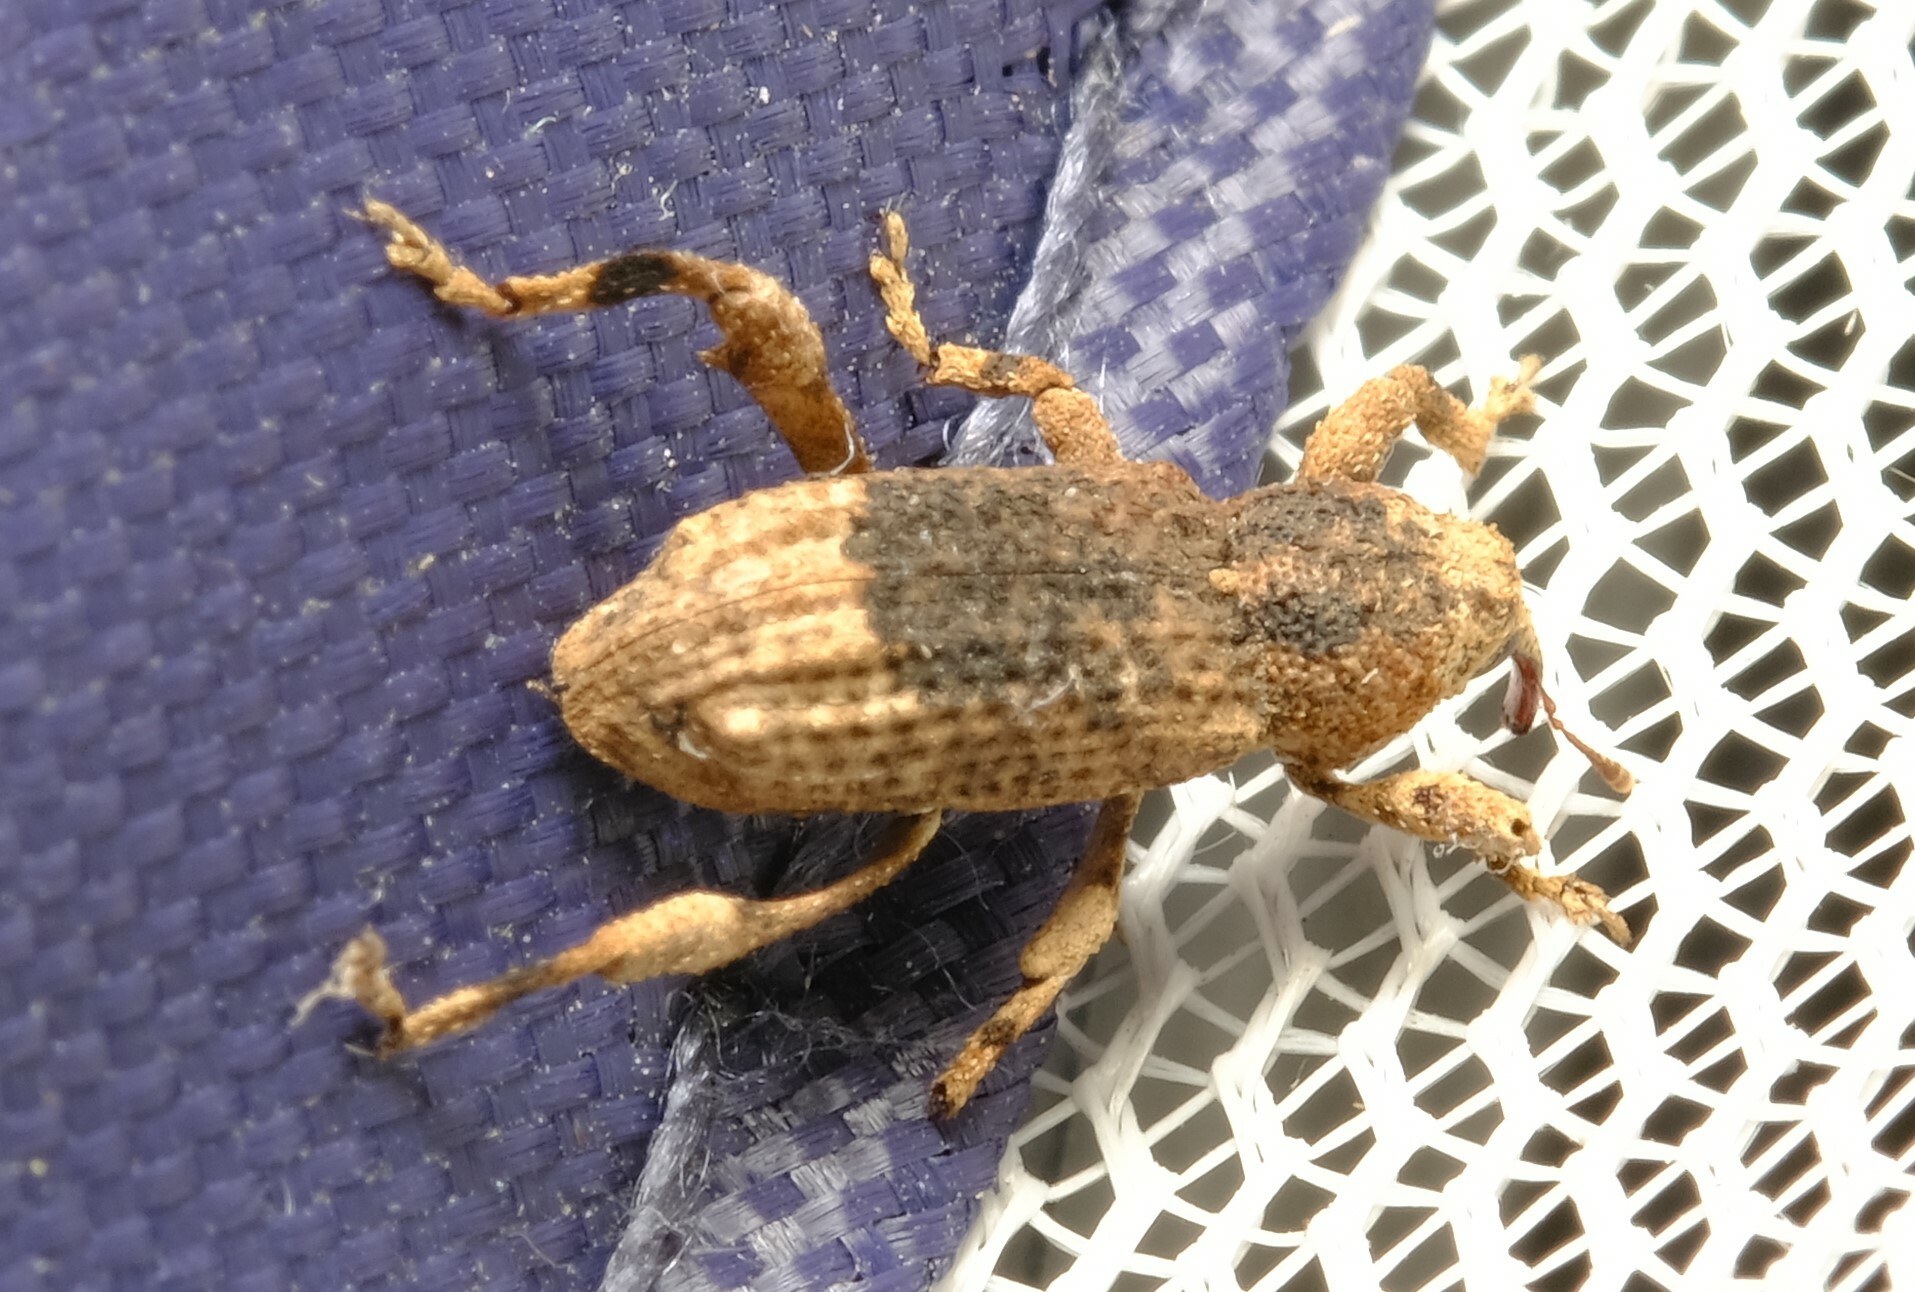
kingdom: Animalia
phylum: Arthropoda
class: Insecta
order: Coleoptera
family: Curculionidae
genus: Camptorhinus
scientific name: Camptorhinus dorsalis
